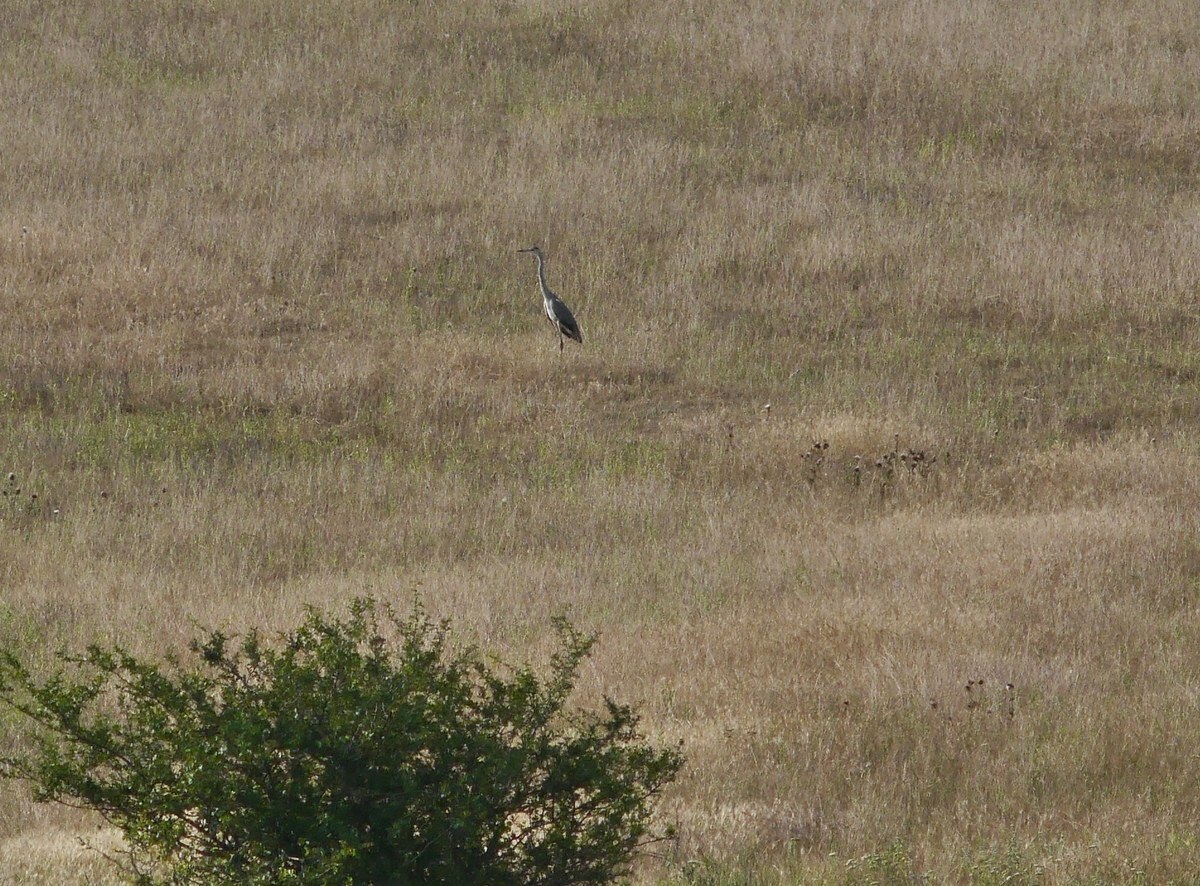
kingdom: Animalia
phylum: Chordata
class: Aves
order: Pelecaniformes
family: Ardeidae
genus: Ardea
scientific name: Ardea cinerea
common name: Grey heron
